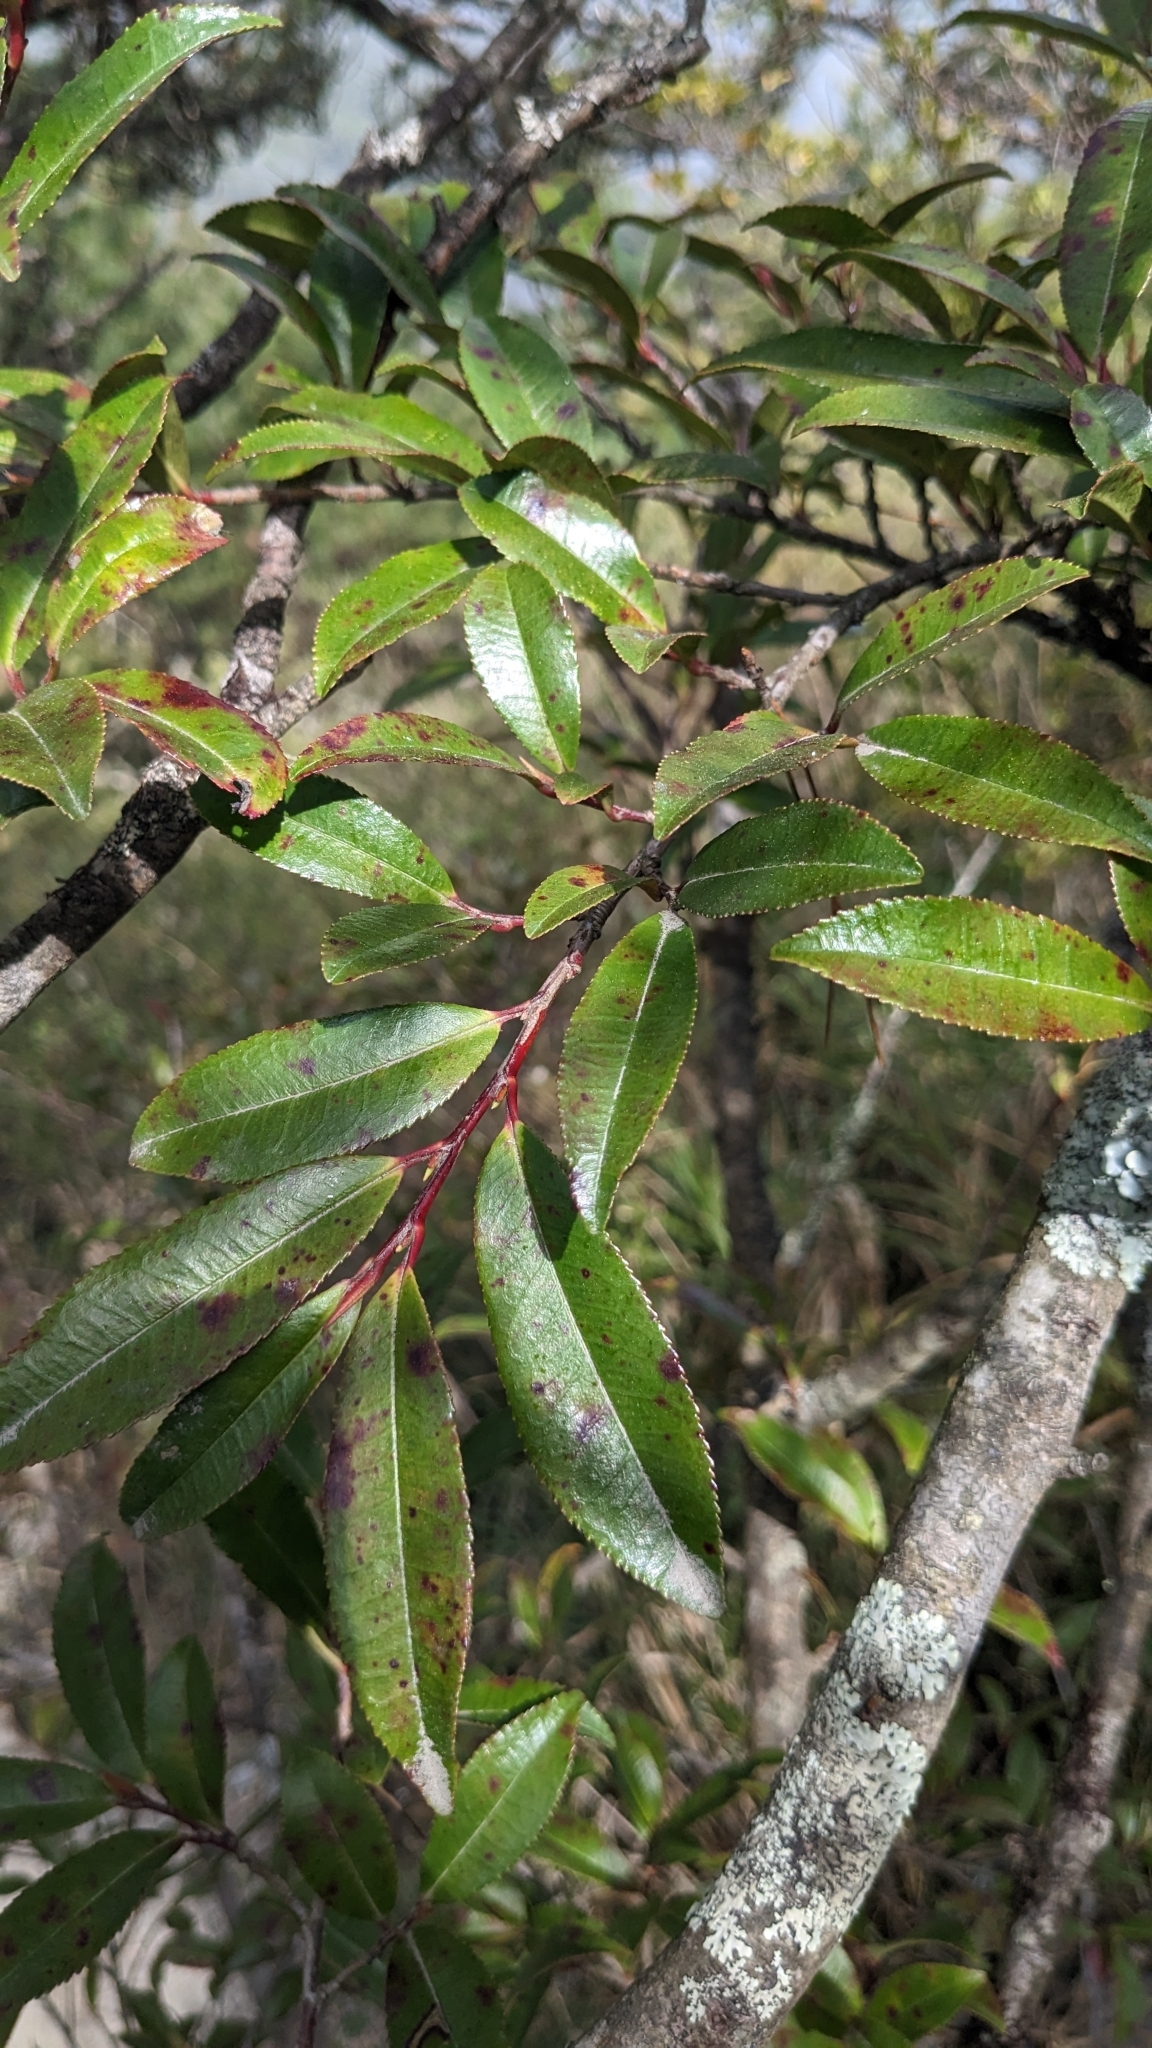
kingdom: Plantae
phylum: Tracheophyta
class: Magnoliopsida
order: Ericales
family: Pentaphylacaceae
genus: Eurya
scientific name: Eurya glaberrima
